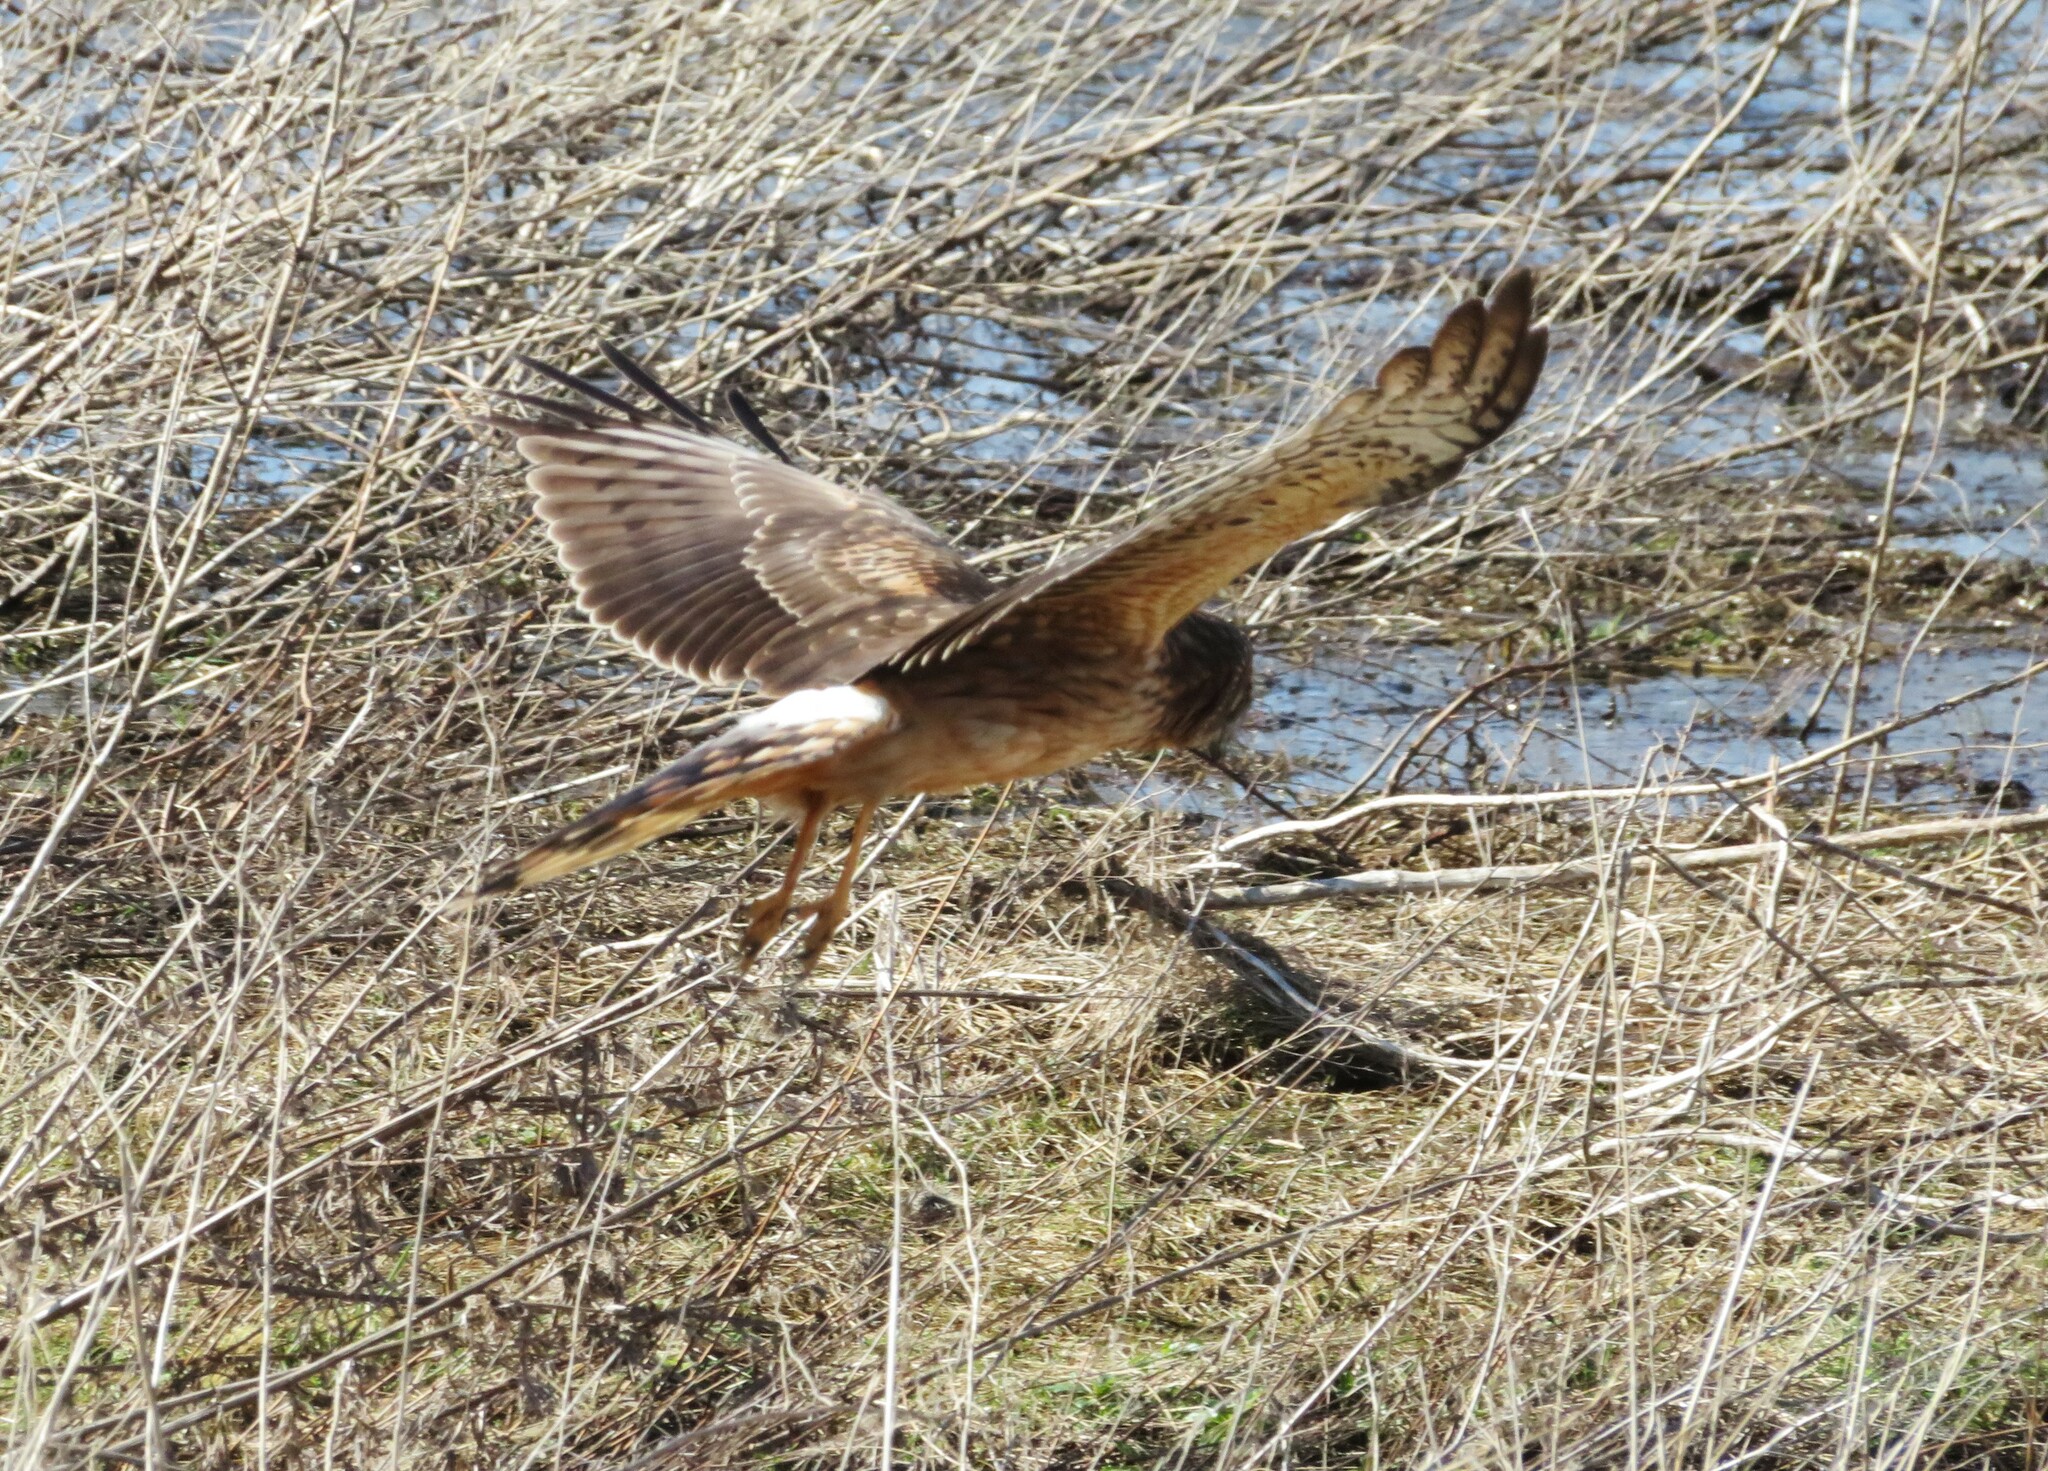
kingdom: Animalia
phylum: Chordata
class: Aves
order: Accipitriformes
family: Accipitridae
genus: Circus
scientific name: Circus cyaneus
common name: Hen harrier
